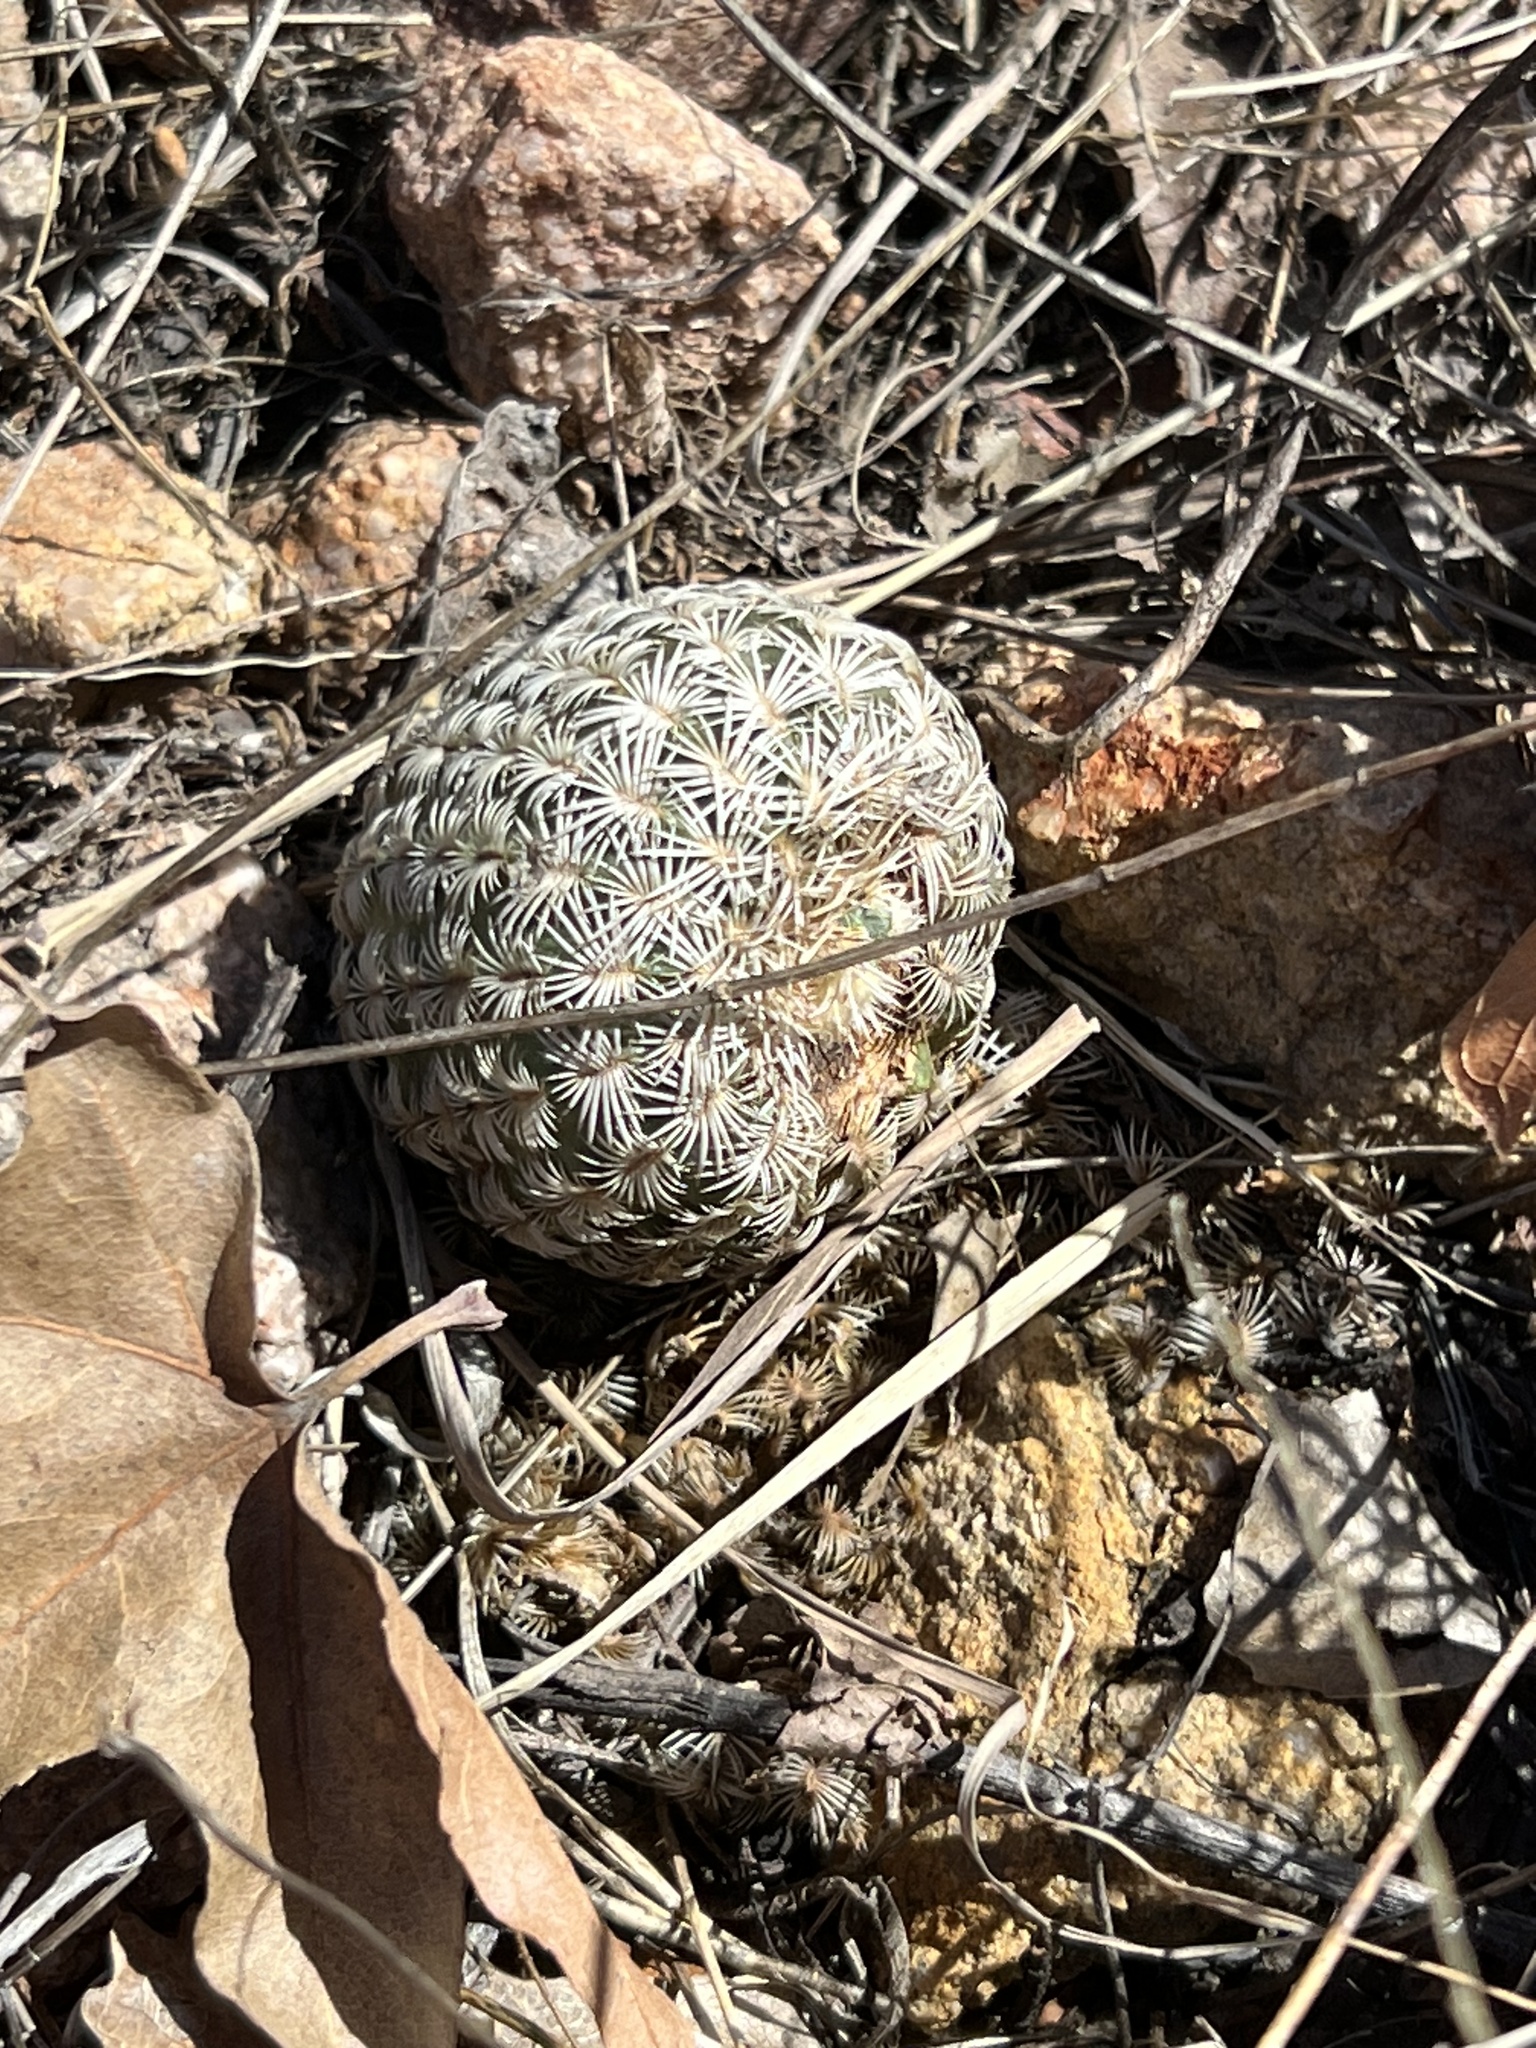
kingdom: Plantae
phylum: Tracheophyta
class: Magnoliopsida
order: Caryophyllales
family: Cactaceae
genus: Echinocereus
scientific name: Echinocereus rigidissimus
